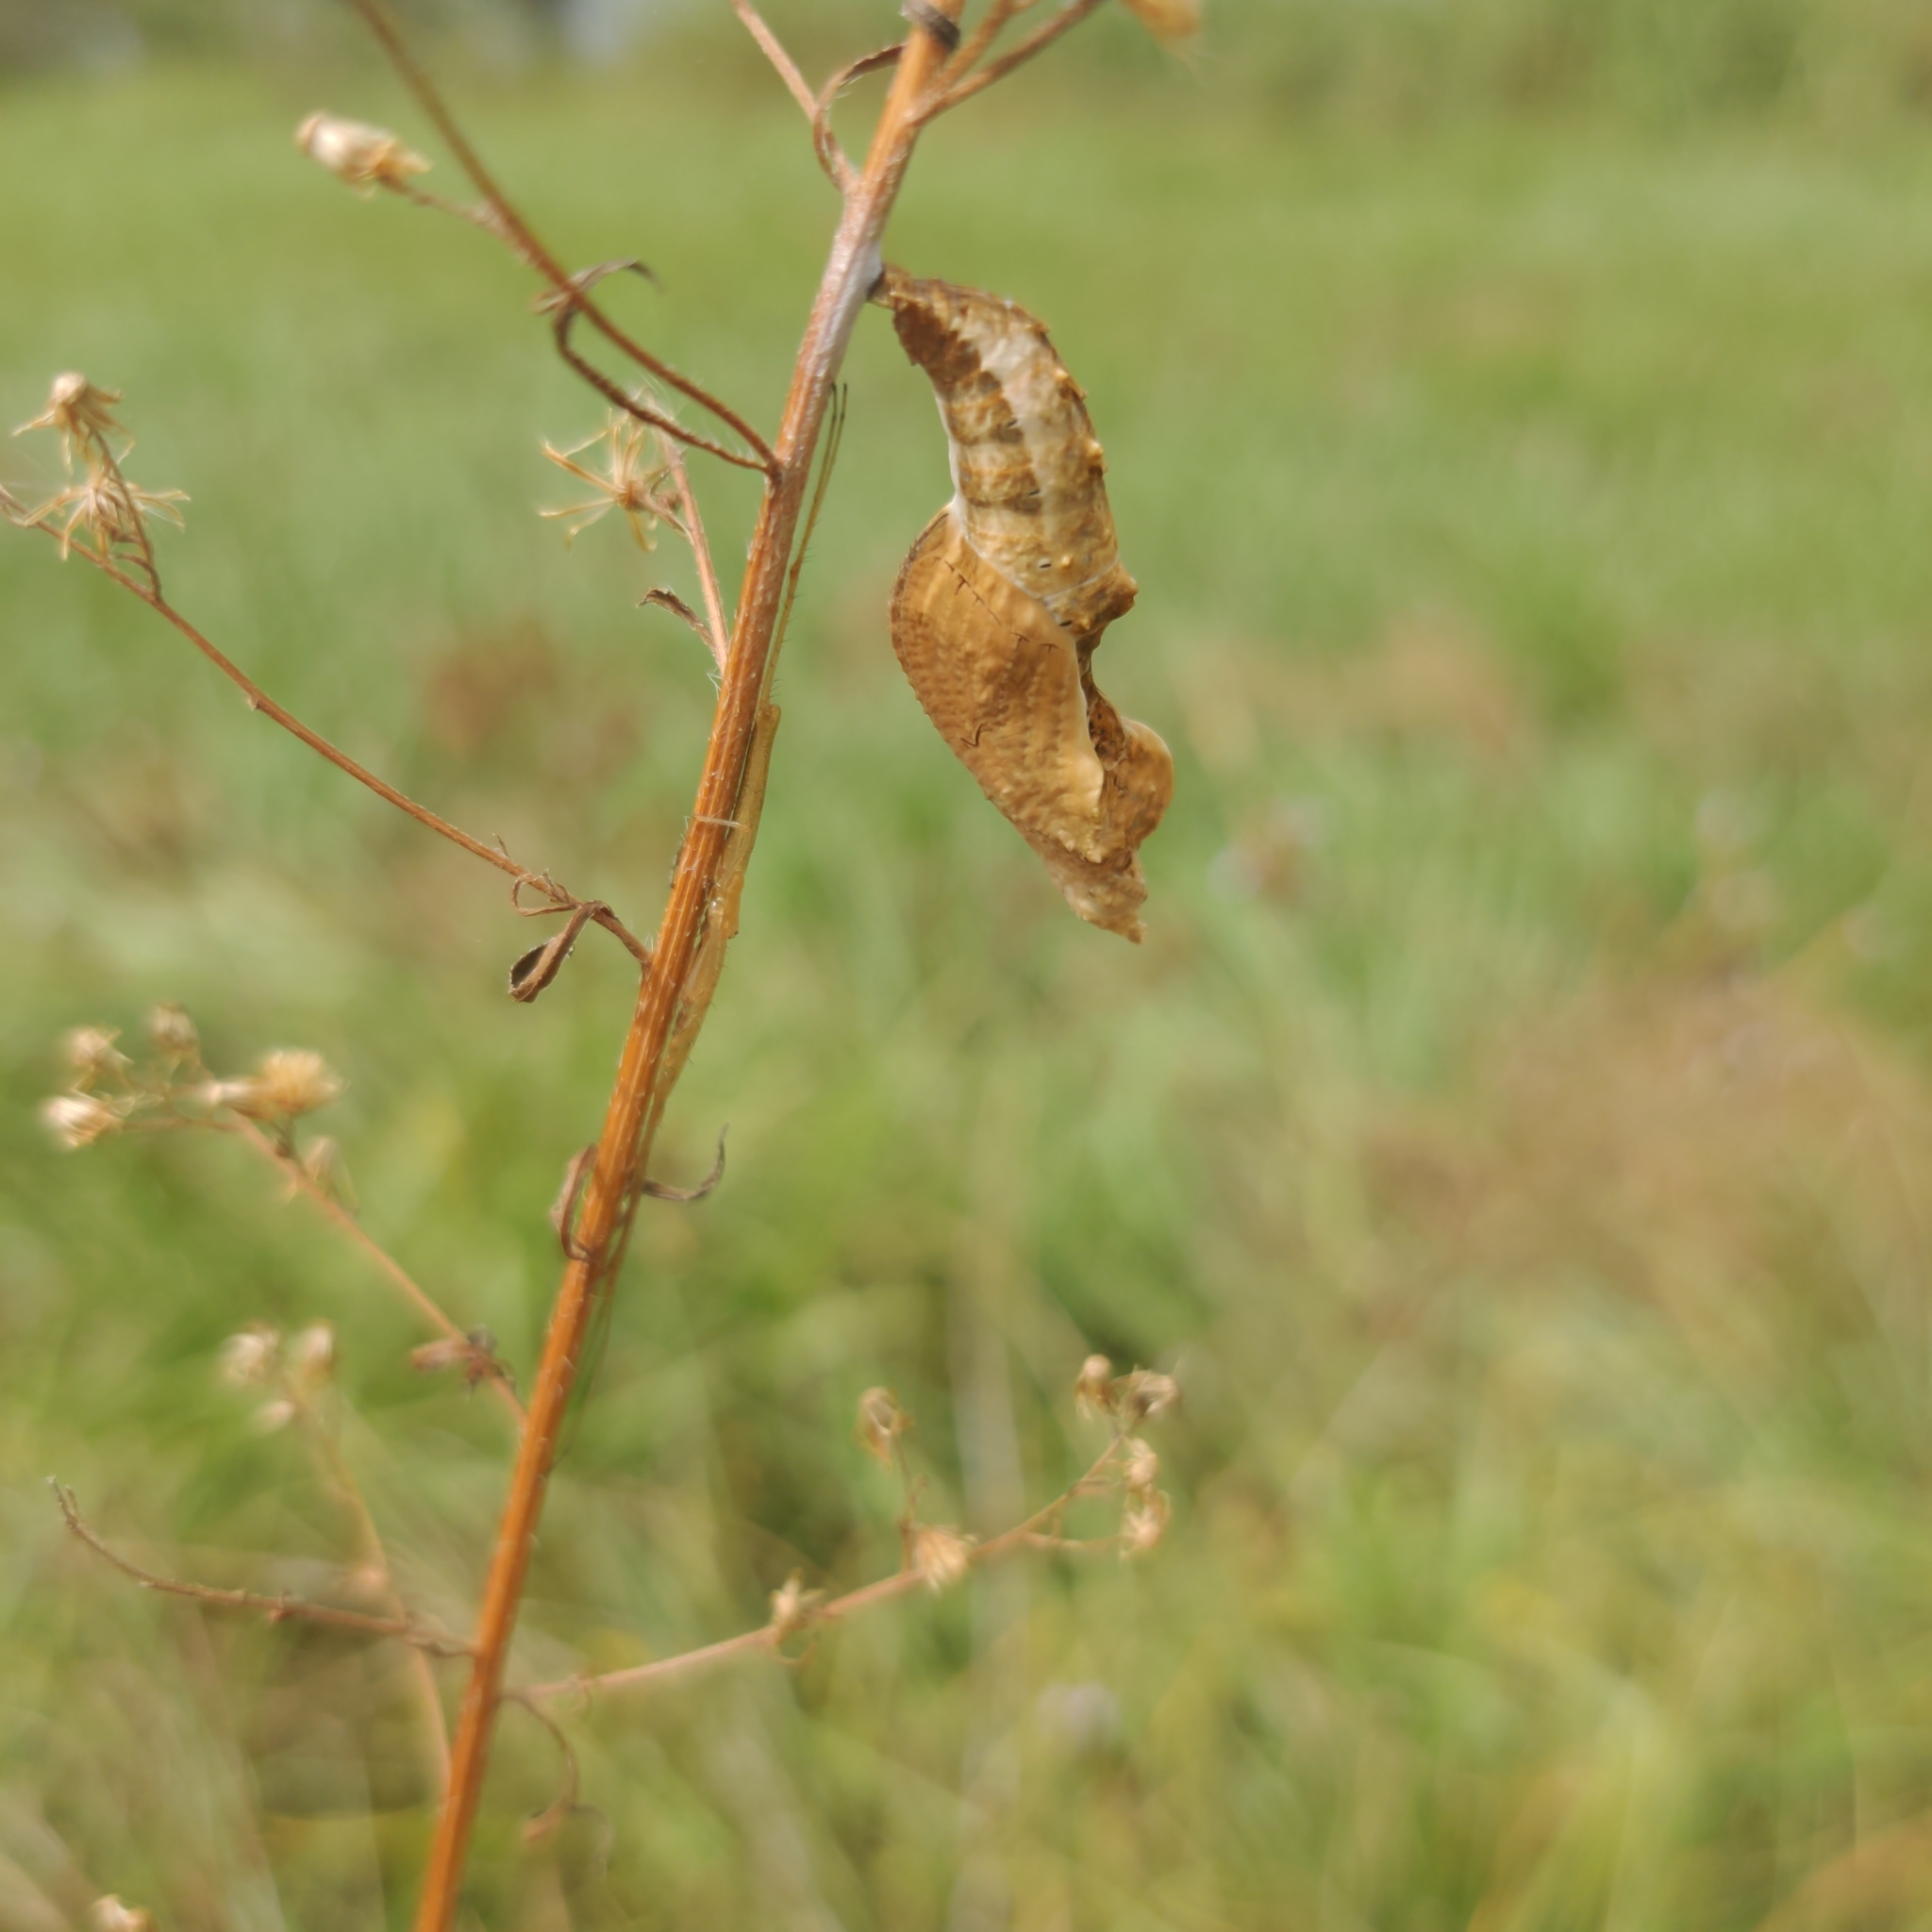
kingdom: Animalia
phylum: Arthropoda
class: Insecta
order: Lepidoptera
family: Nymphalidae
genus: Dione
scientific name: Dione vanillae
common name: Gulf fritillary
